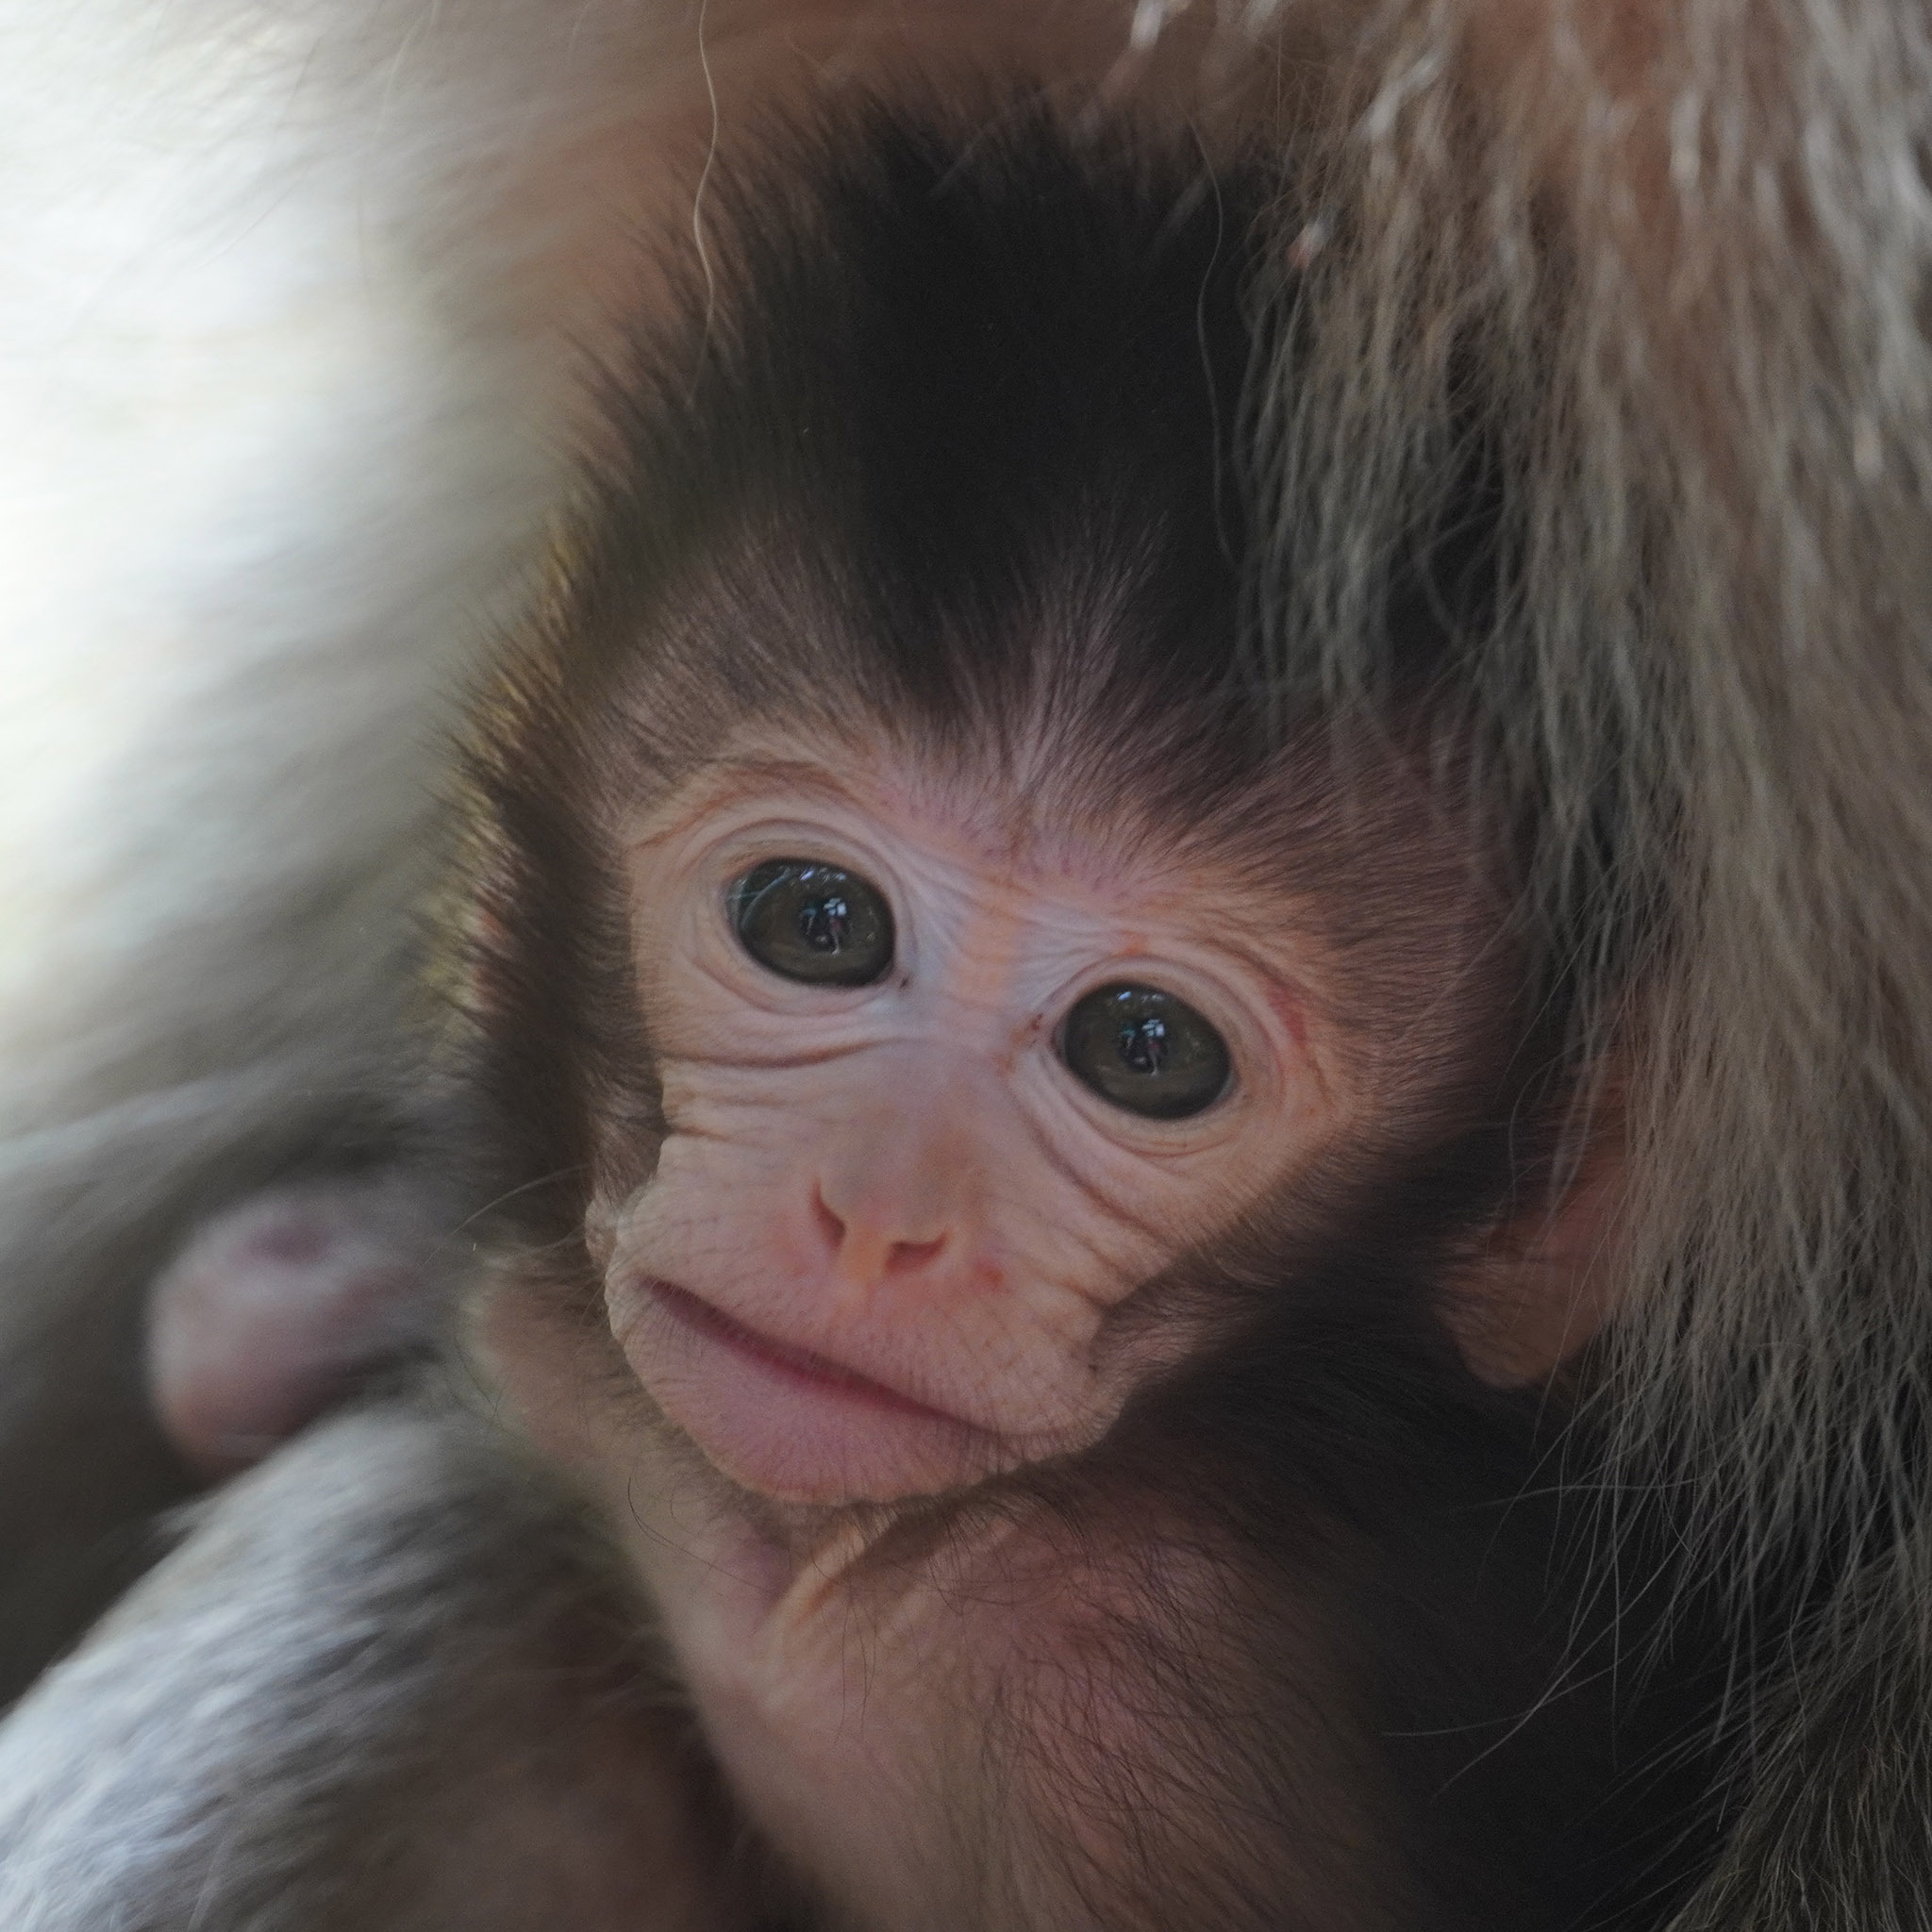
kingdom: Animalia
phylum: Chordata
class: Mammalia
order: Primates
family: Cercopithecidae
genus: Macaca
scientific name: Macaca fascicularis
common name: Crab-eating macaque
